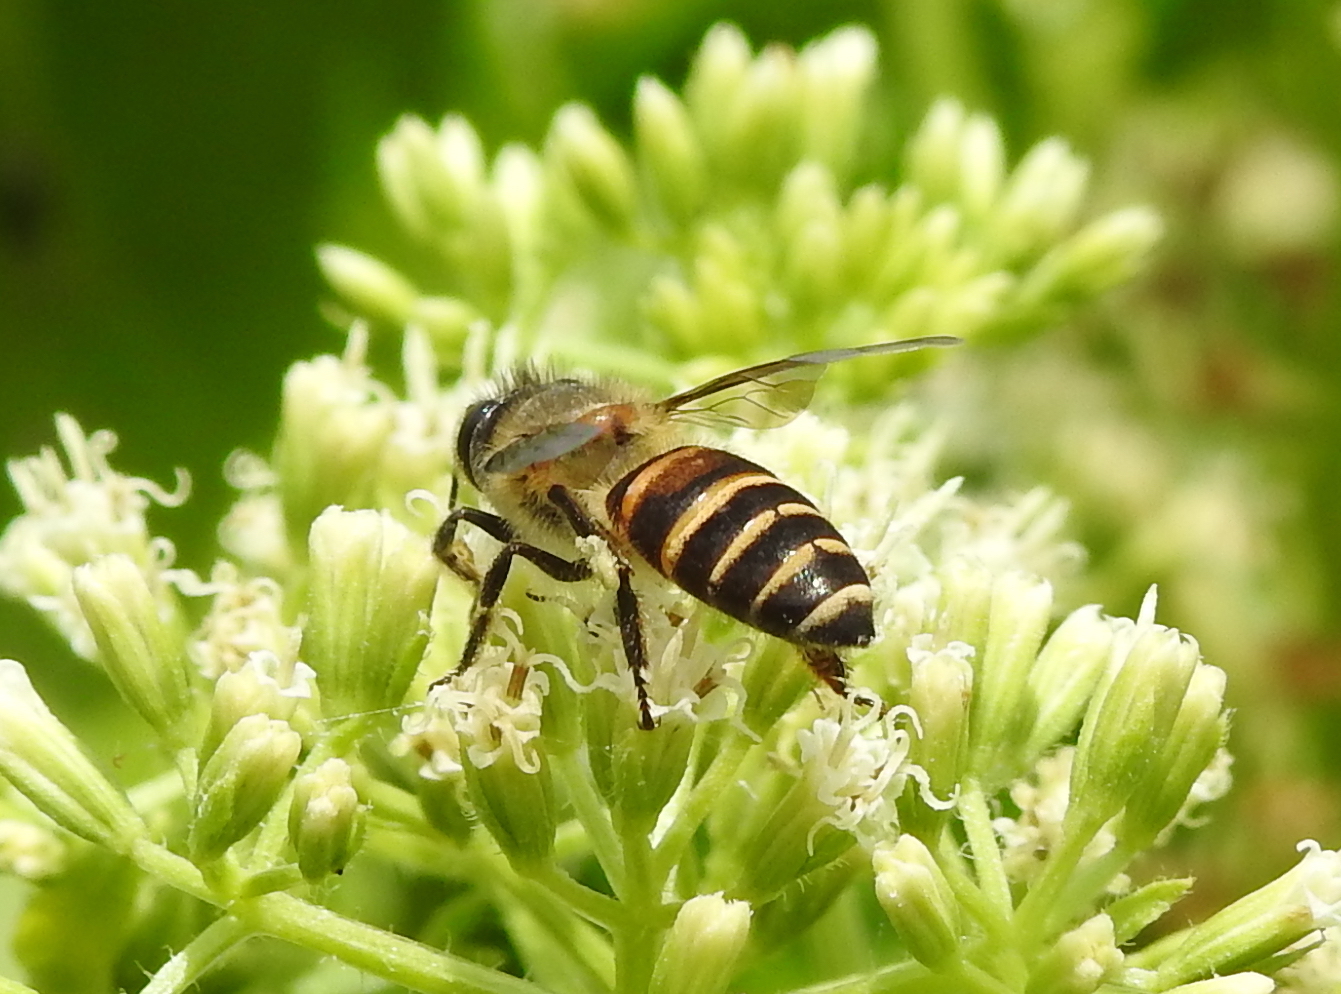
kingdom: Animalia
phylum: Arthropoda
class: Insecta
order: Hymenoptera
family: Apidae
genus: Apis
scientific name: Apis cerana
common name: Honey bee
